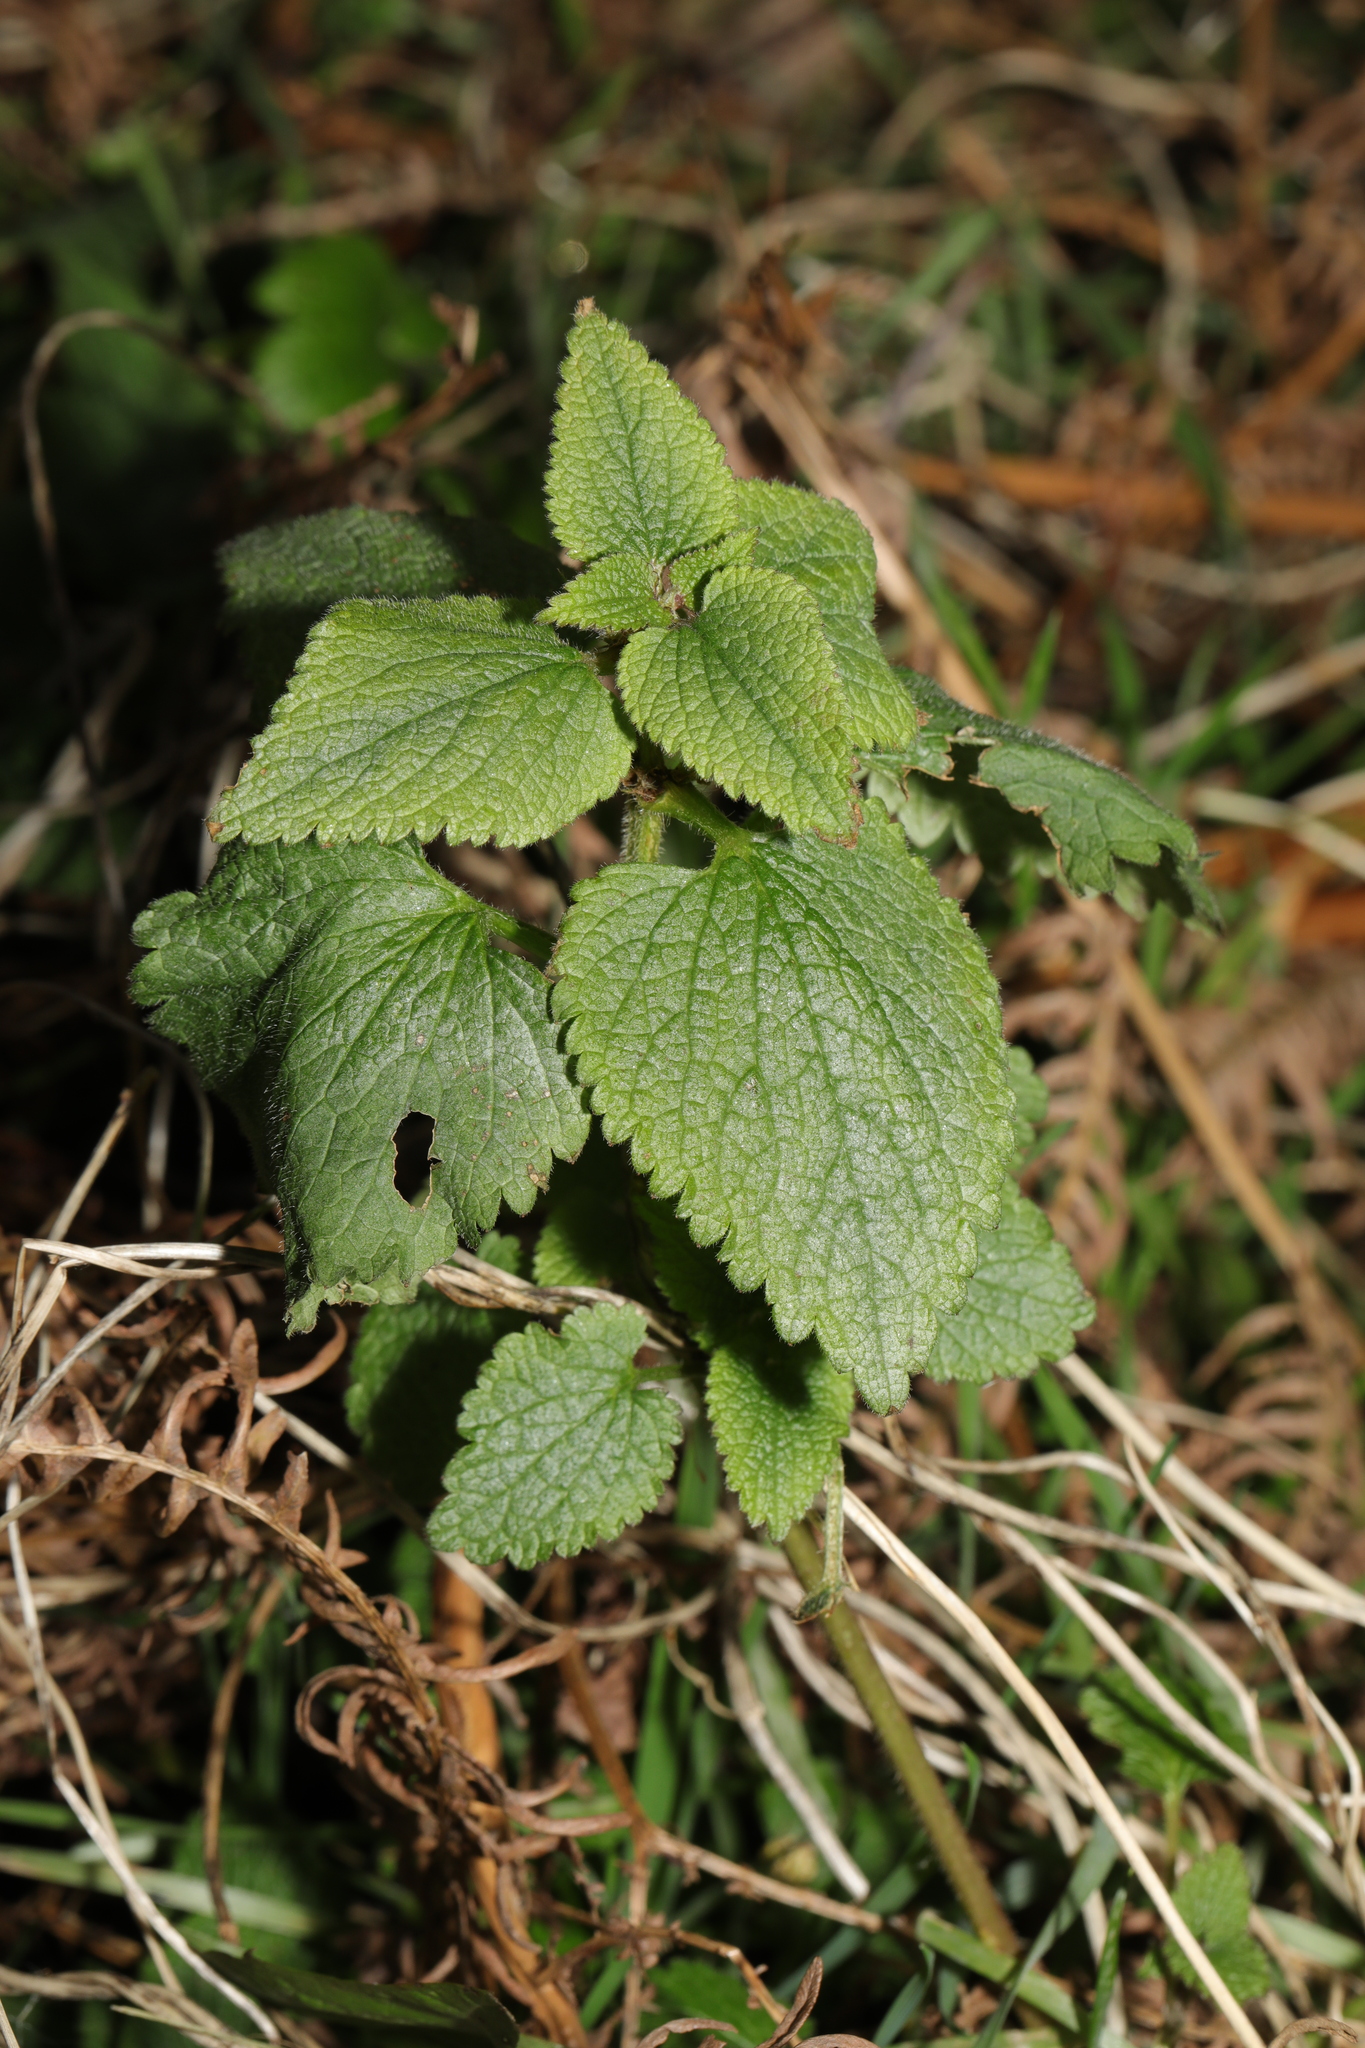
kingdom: Plantae
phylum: Tracheophyta
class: Magnoliopsida
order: Lamiales
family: Lamiaceae
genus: Lamium
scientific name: Lamium album
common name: White dead-nettle
